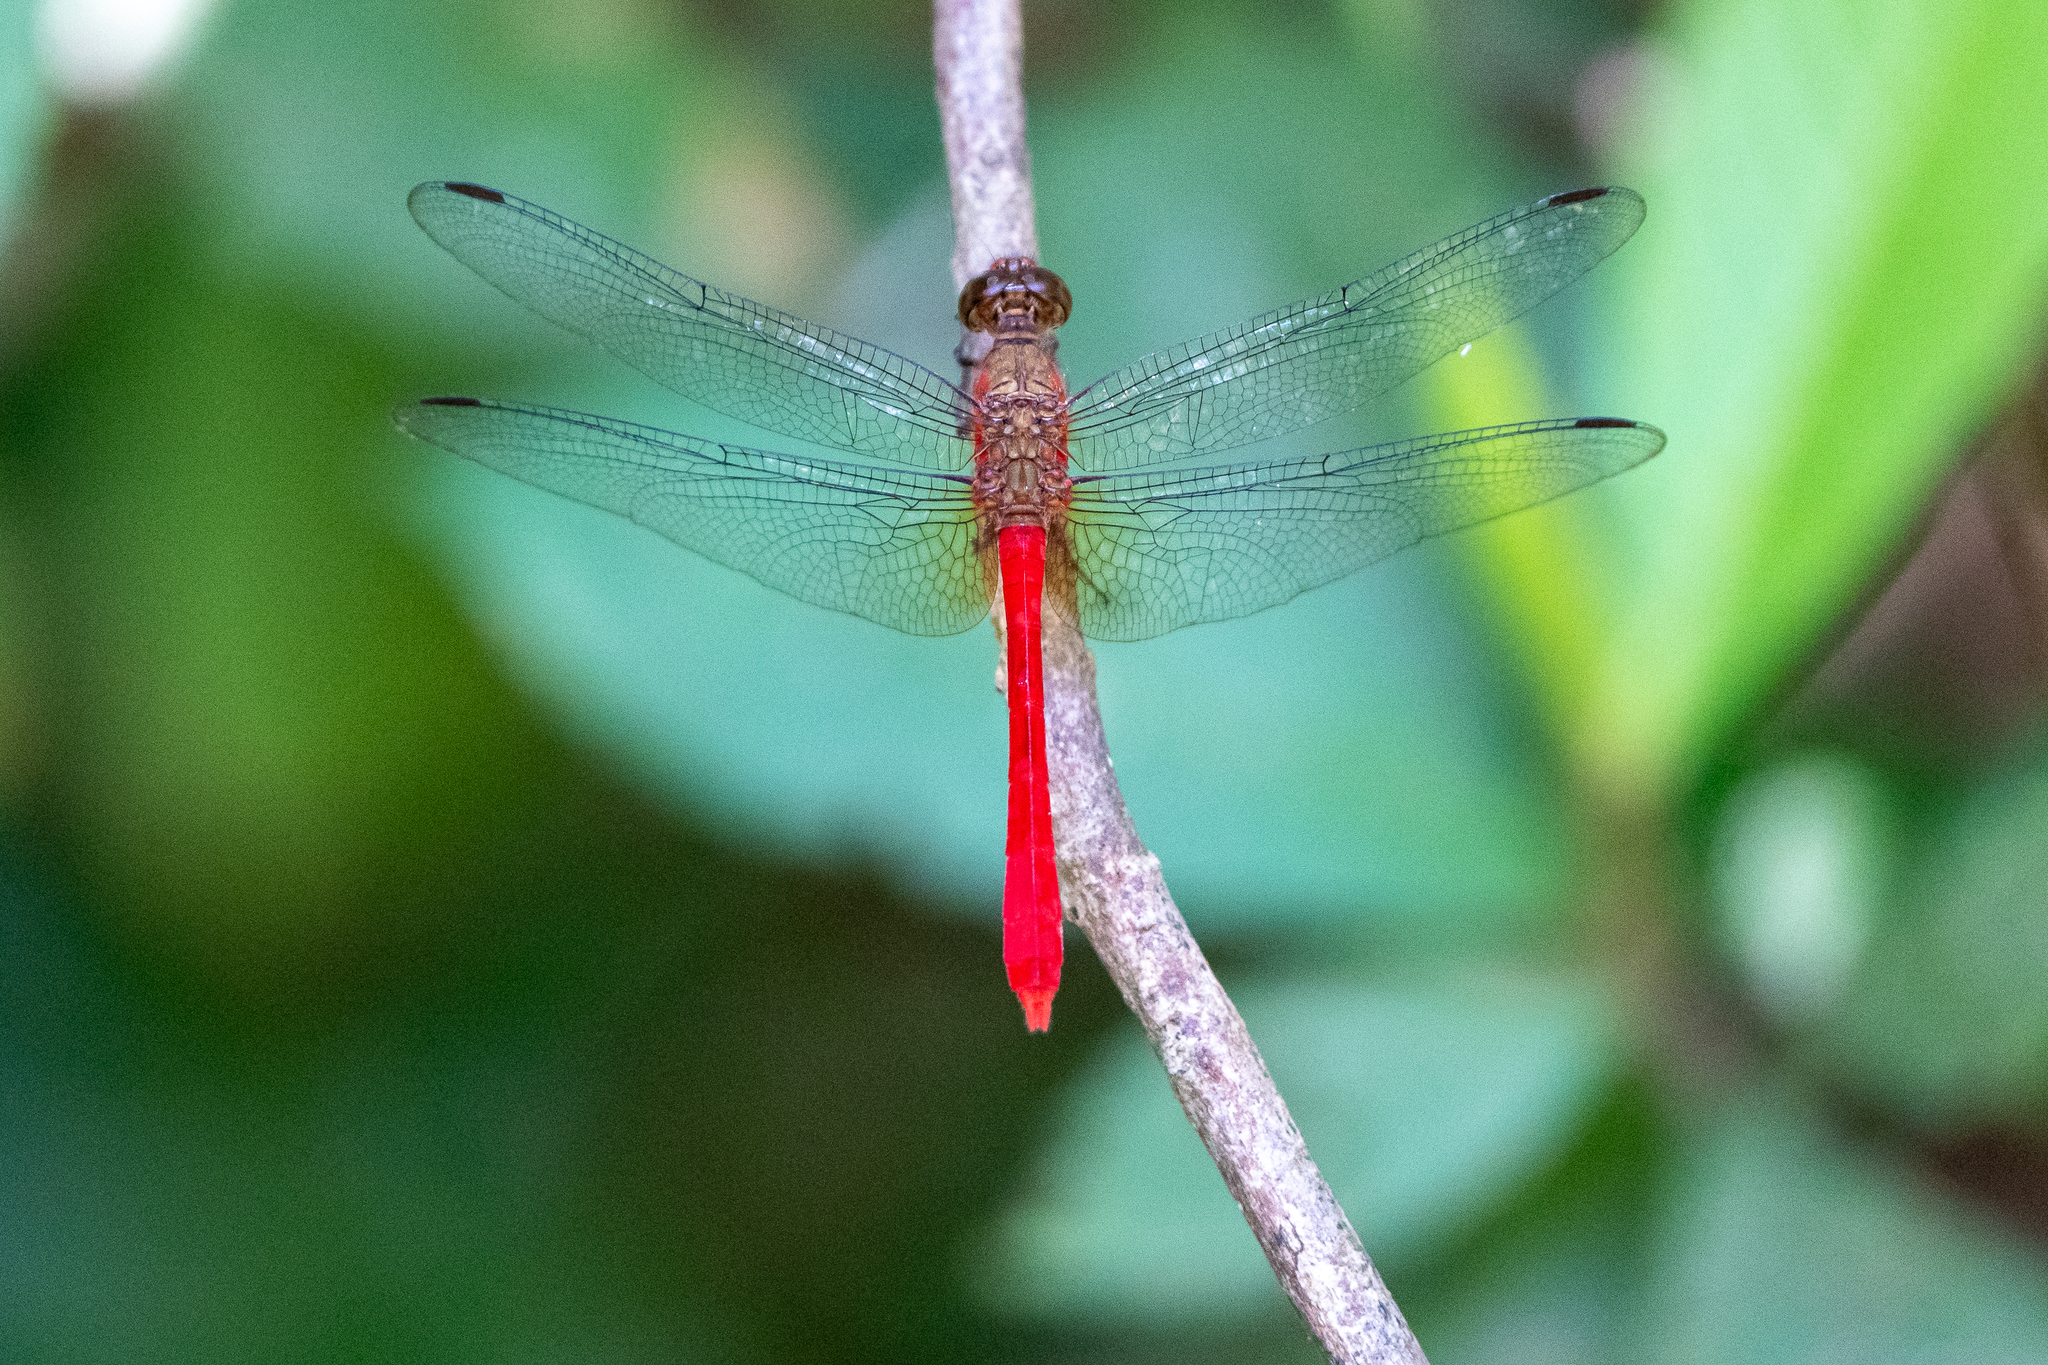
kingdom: Animalia
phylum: Arthropoda
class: Insecta
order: Odonata
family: Libellulidae
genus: Rhodopygia
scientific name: Rhodopygia hinei
